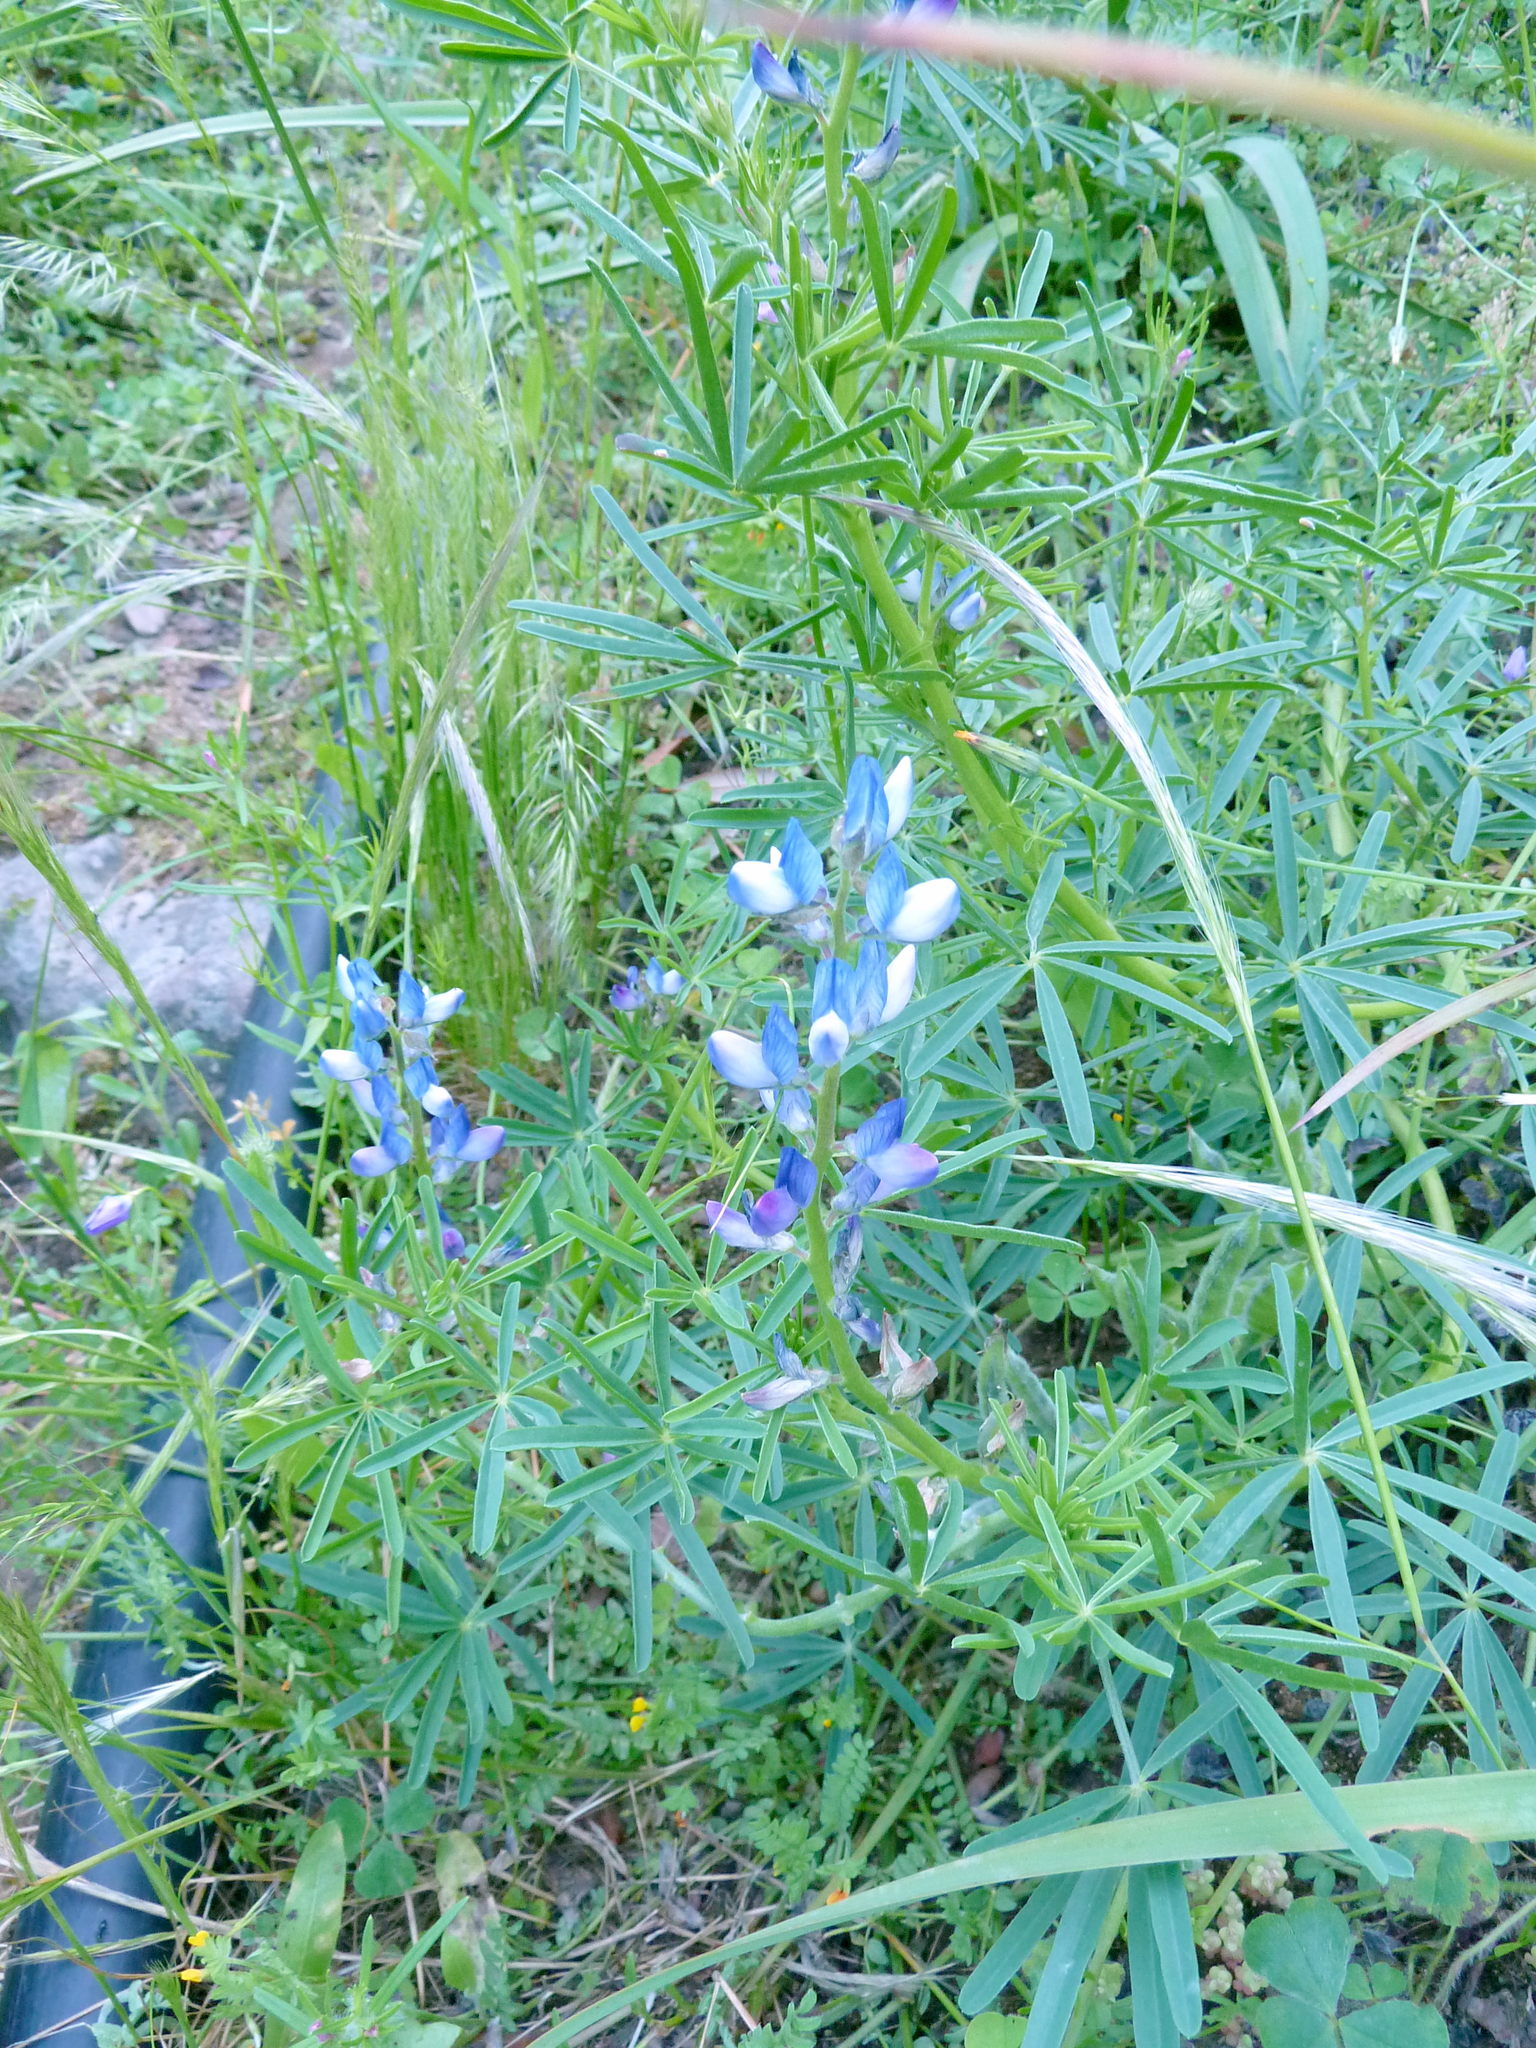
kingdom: Plantae
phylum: Tracheophyta
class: Magnoliopsida
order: Fabales
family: Fabaceae
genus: Lupinus
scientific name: Lupinus angustifolius
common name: Narrow-leaved lupin
